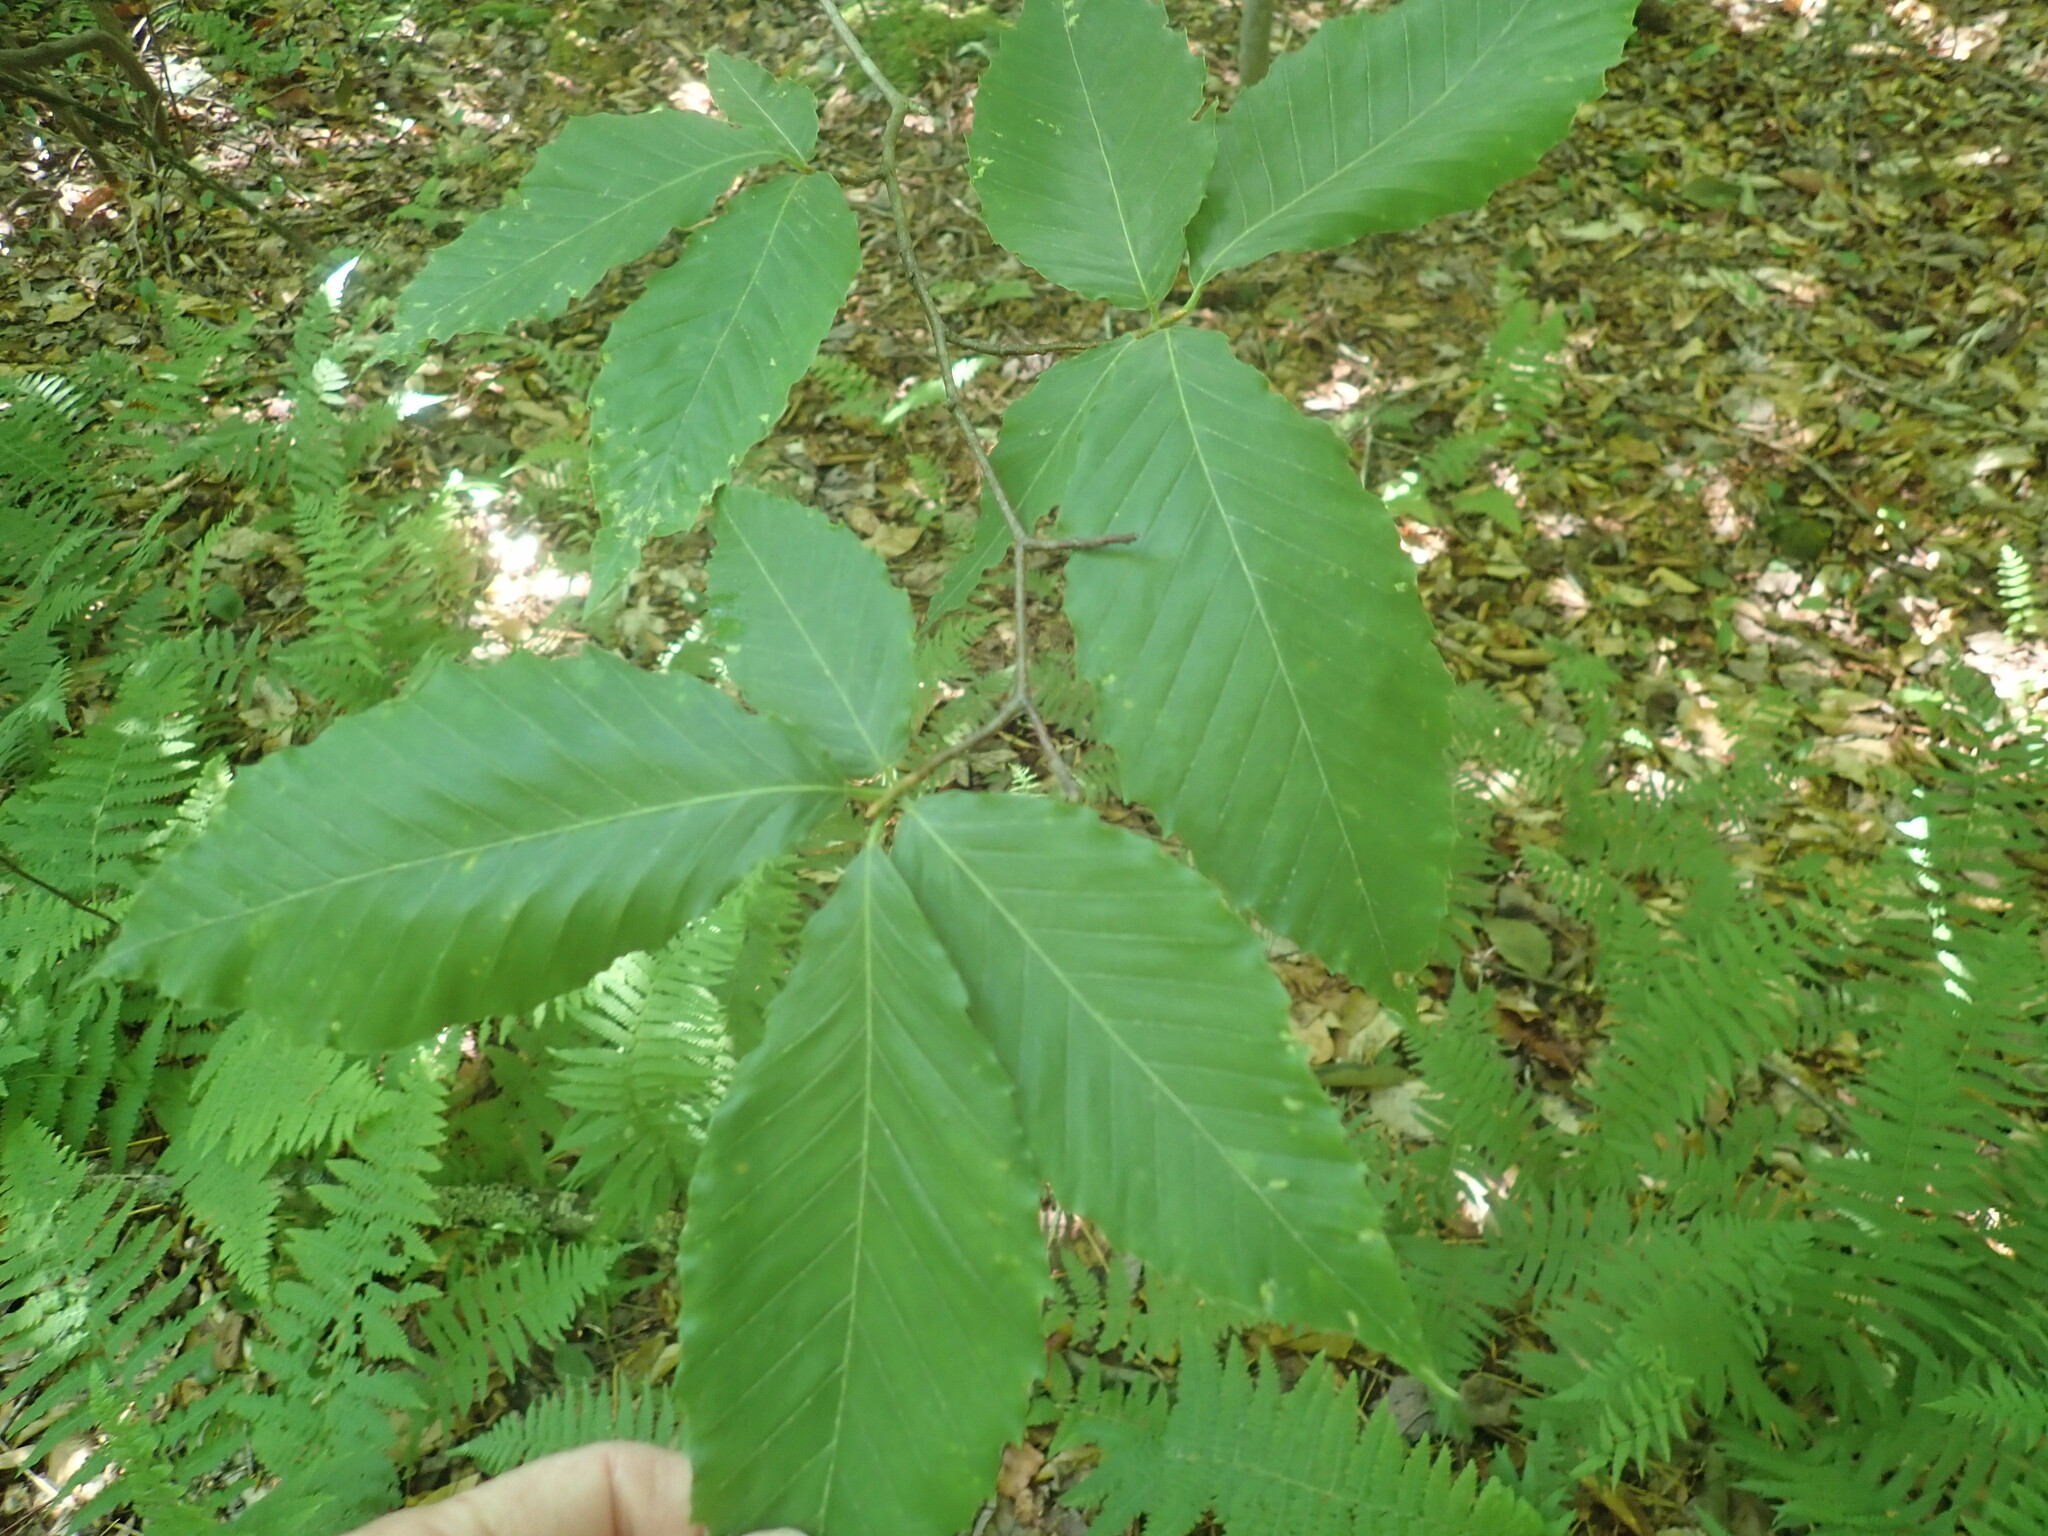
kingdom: Plantae
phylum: Tracheophyta
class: Magnoliopsida
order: Fagales
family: Fagaceae
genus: Fagus
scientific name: Fagus grandifolia
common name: American beech
